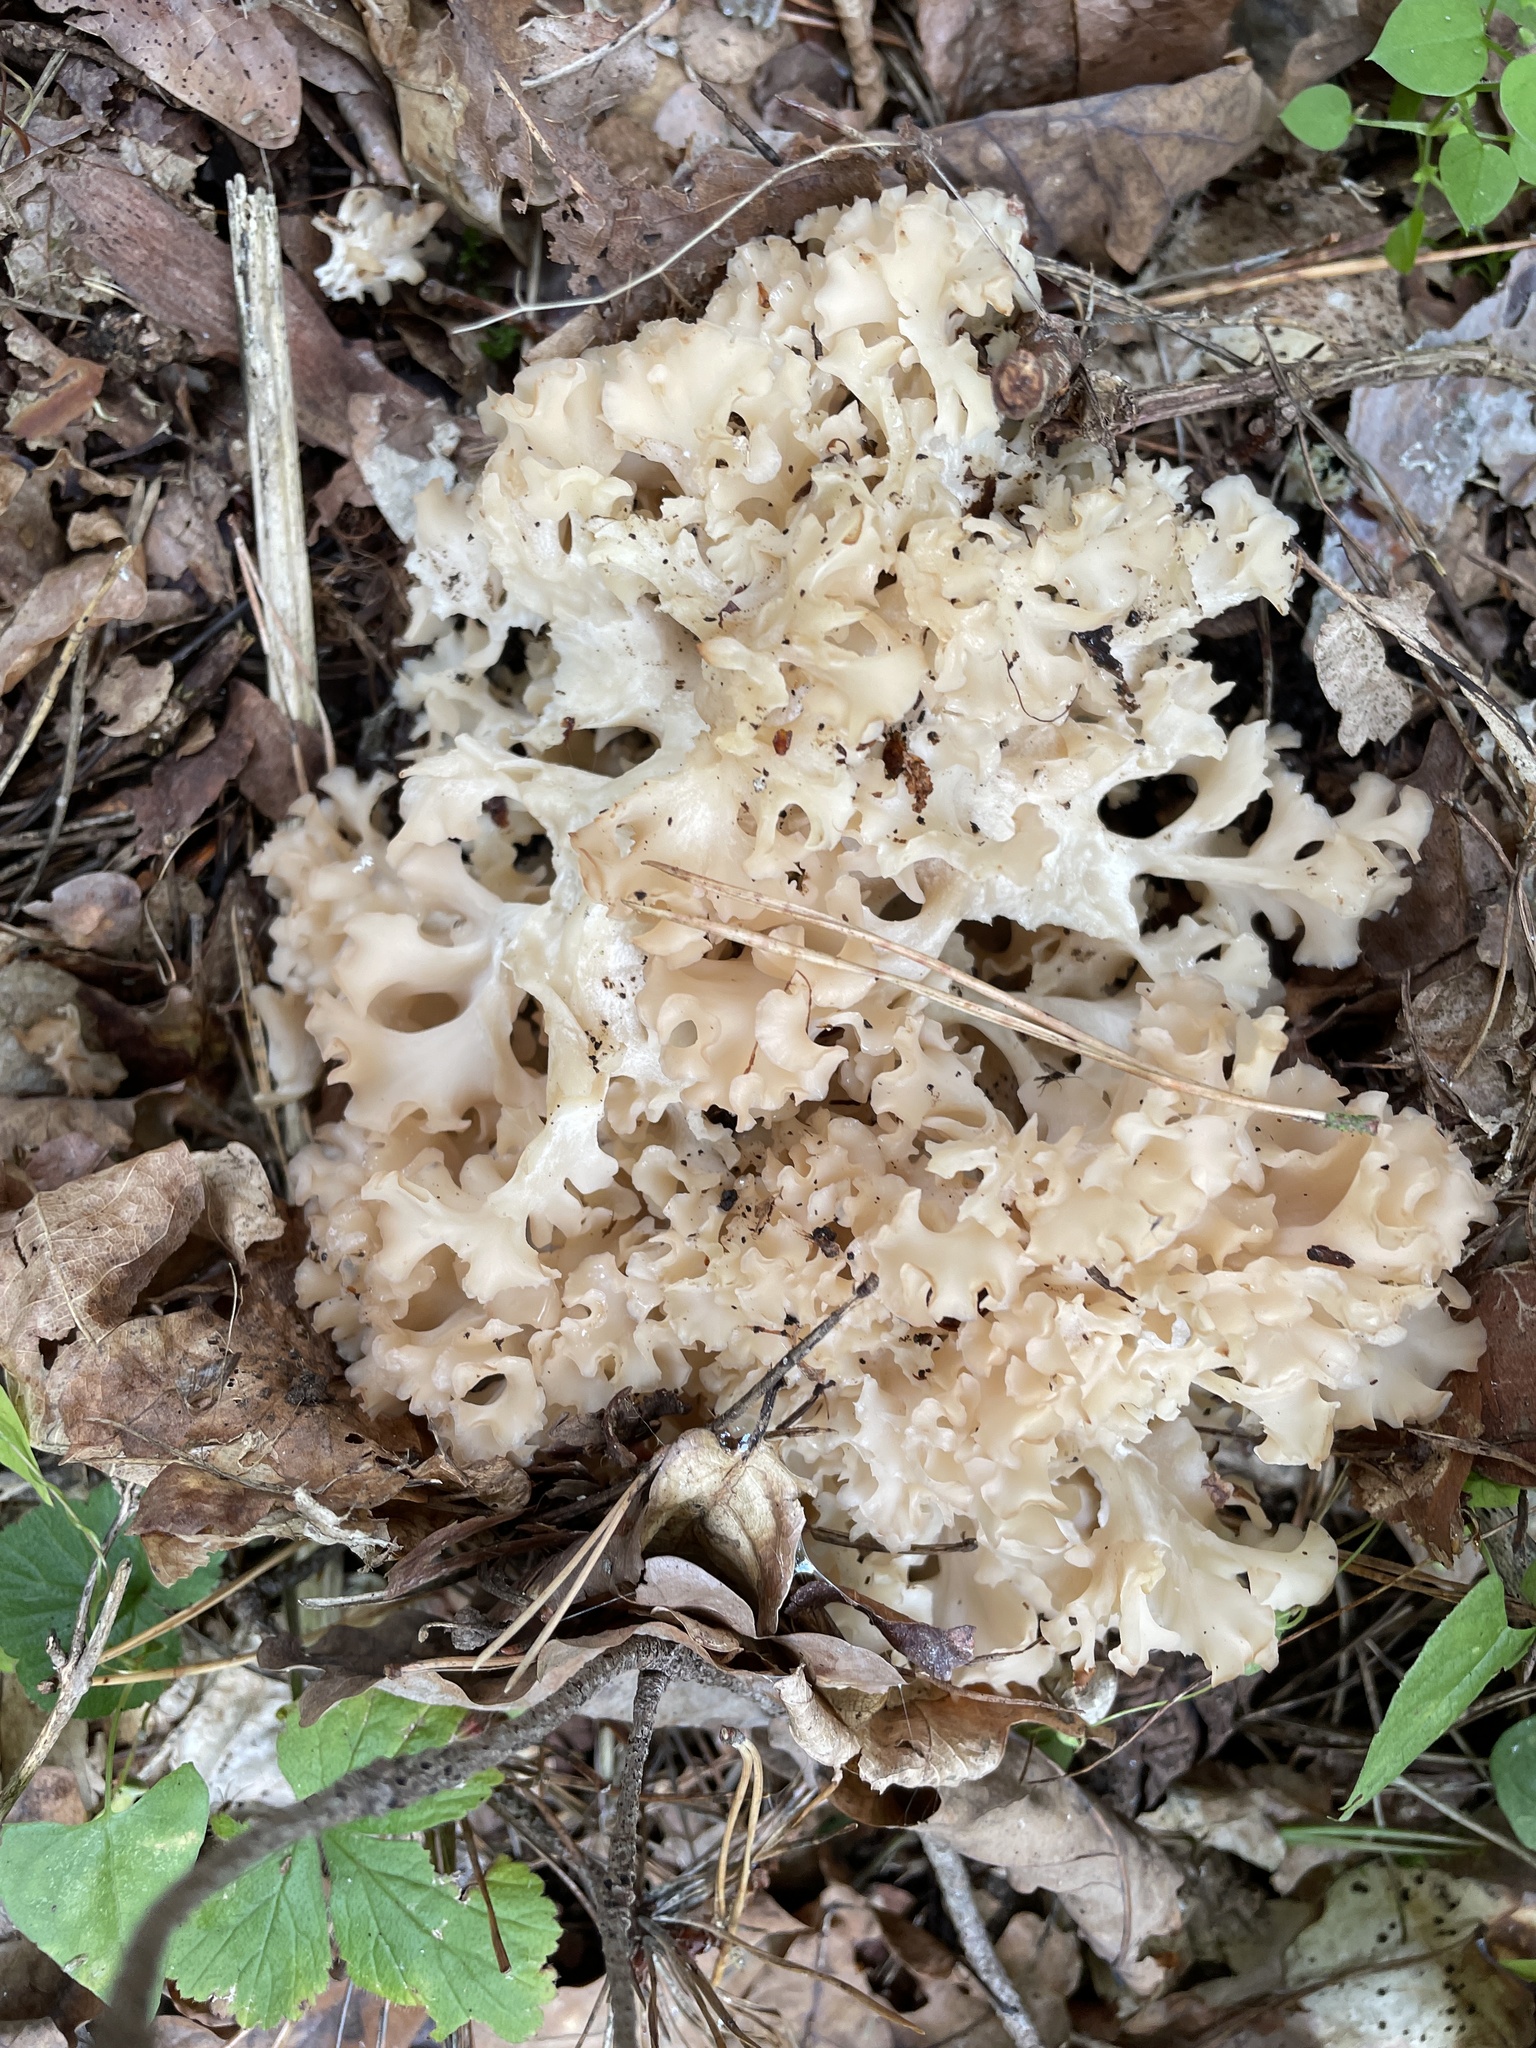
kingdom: Fungi
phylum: Basidiomycota
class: Agaricomycetes
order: Polyporales
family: Sparassidaceae
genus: Sparassis
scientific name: Sparassis crispa
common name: Brain fungus
